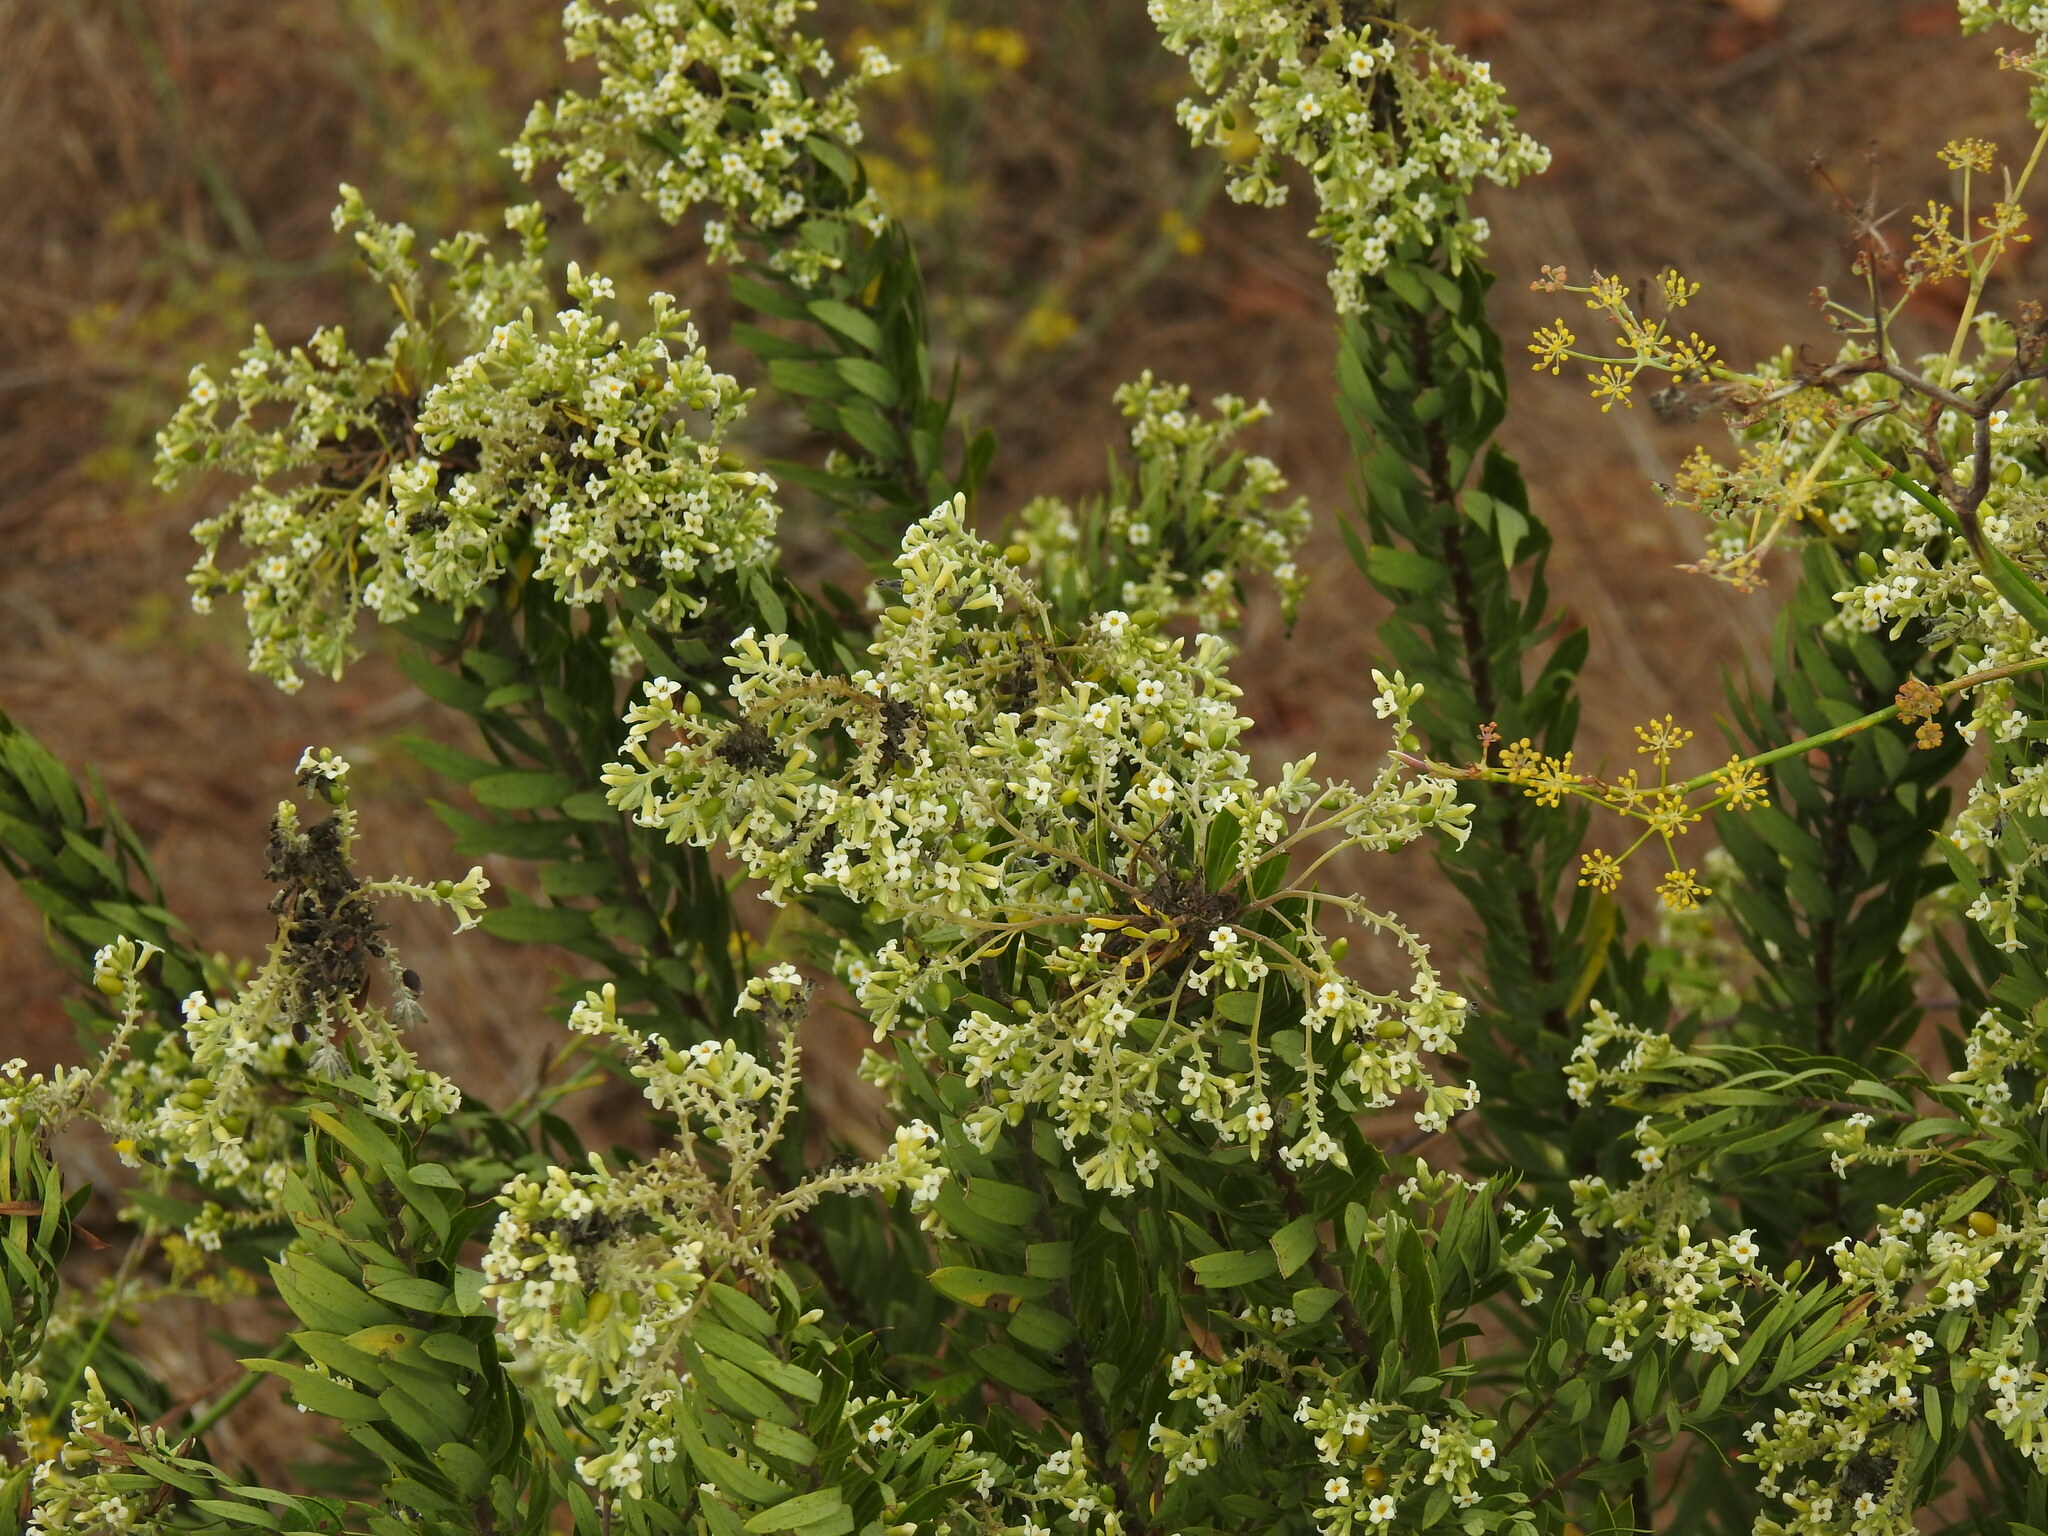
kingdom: Plantae
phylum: Tracheophyta
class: Magnoliopsida
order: Malvales
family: Thymelaeaceae
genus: Daphne
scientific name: Daphne gnidium
